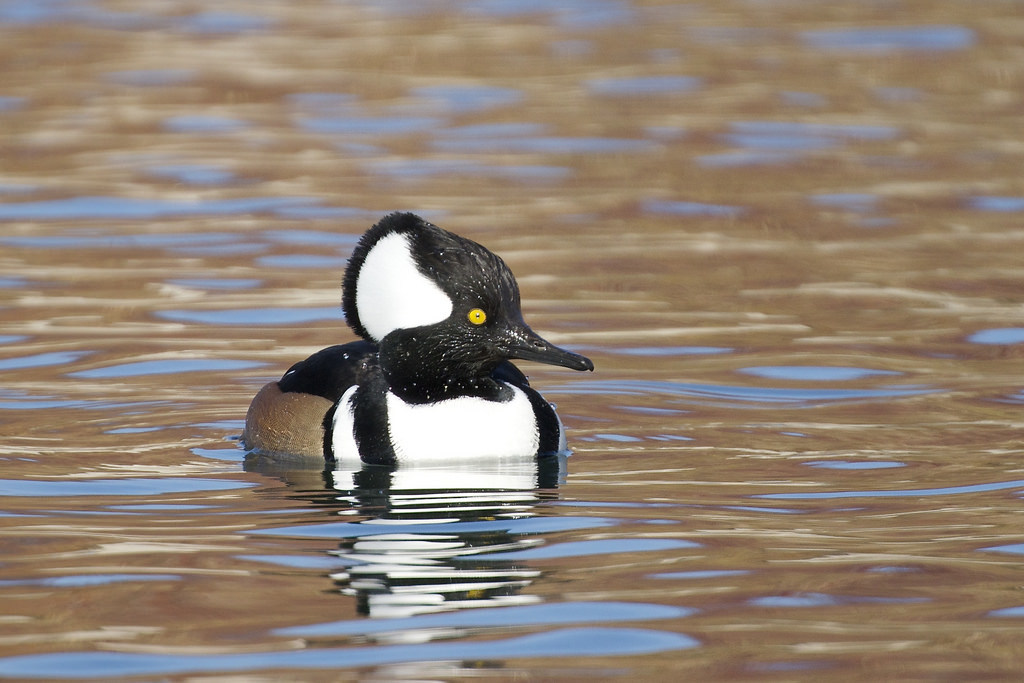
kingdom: Animalia
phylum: Chordata
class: Aves
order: Anseriformes
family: Anatidae
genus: Lophodytes
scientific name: Lophodytes cucullatus
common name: Hooded merganser
